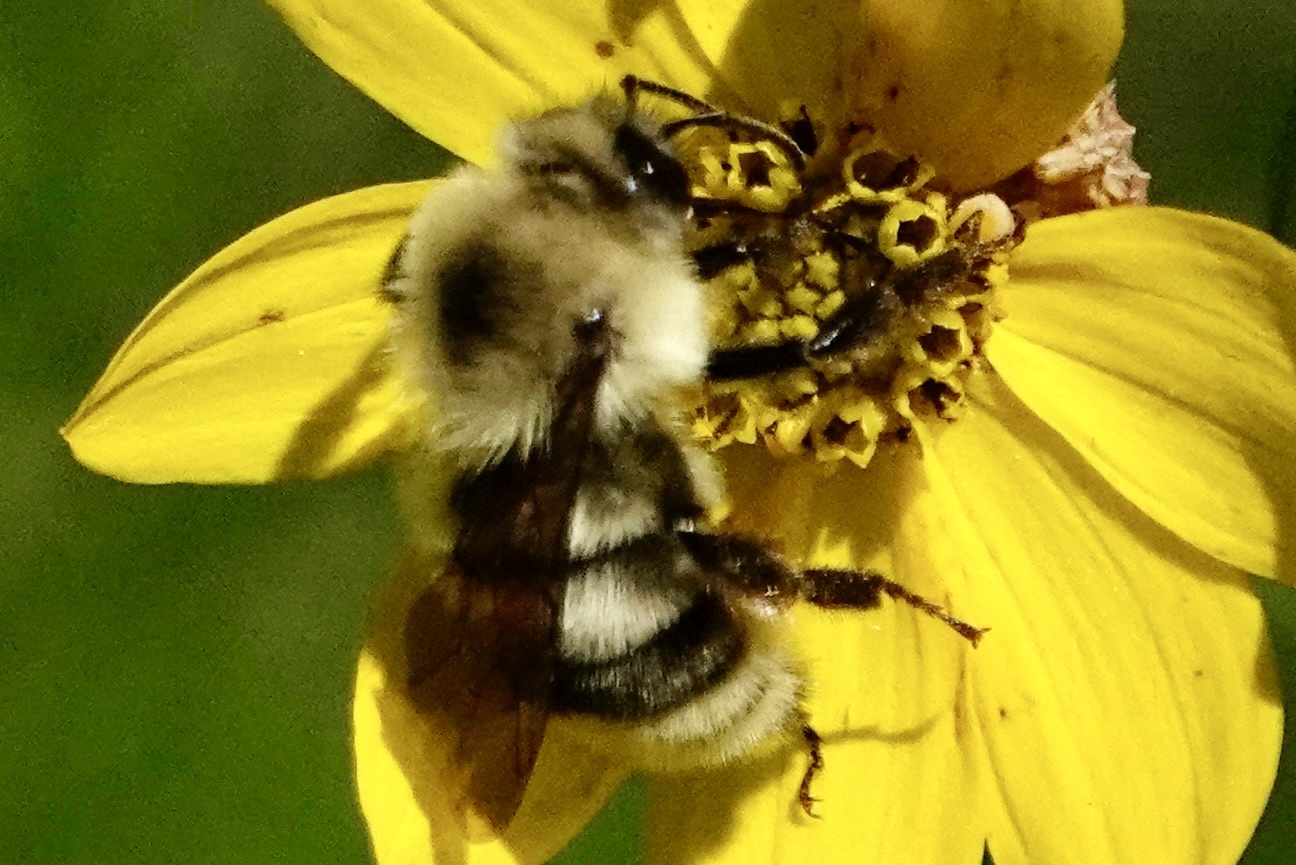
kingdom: Animalia
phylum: Arthropoda
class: Insecta
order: Hymenoptera
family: Apidae
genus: Bombus
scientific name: Bombus bimaculatus
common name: Two-spotted bumble bee
